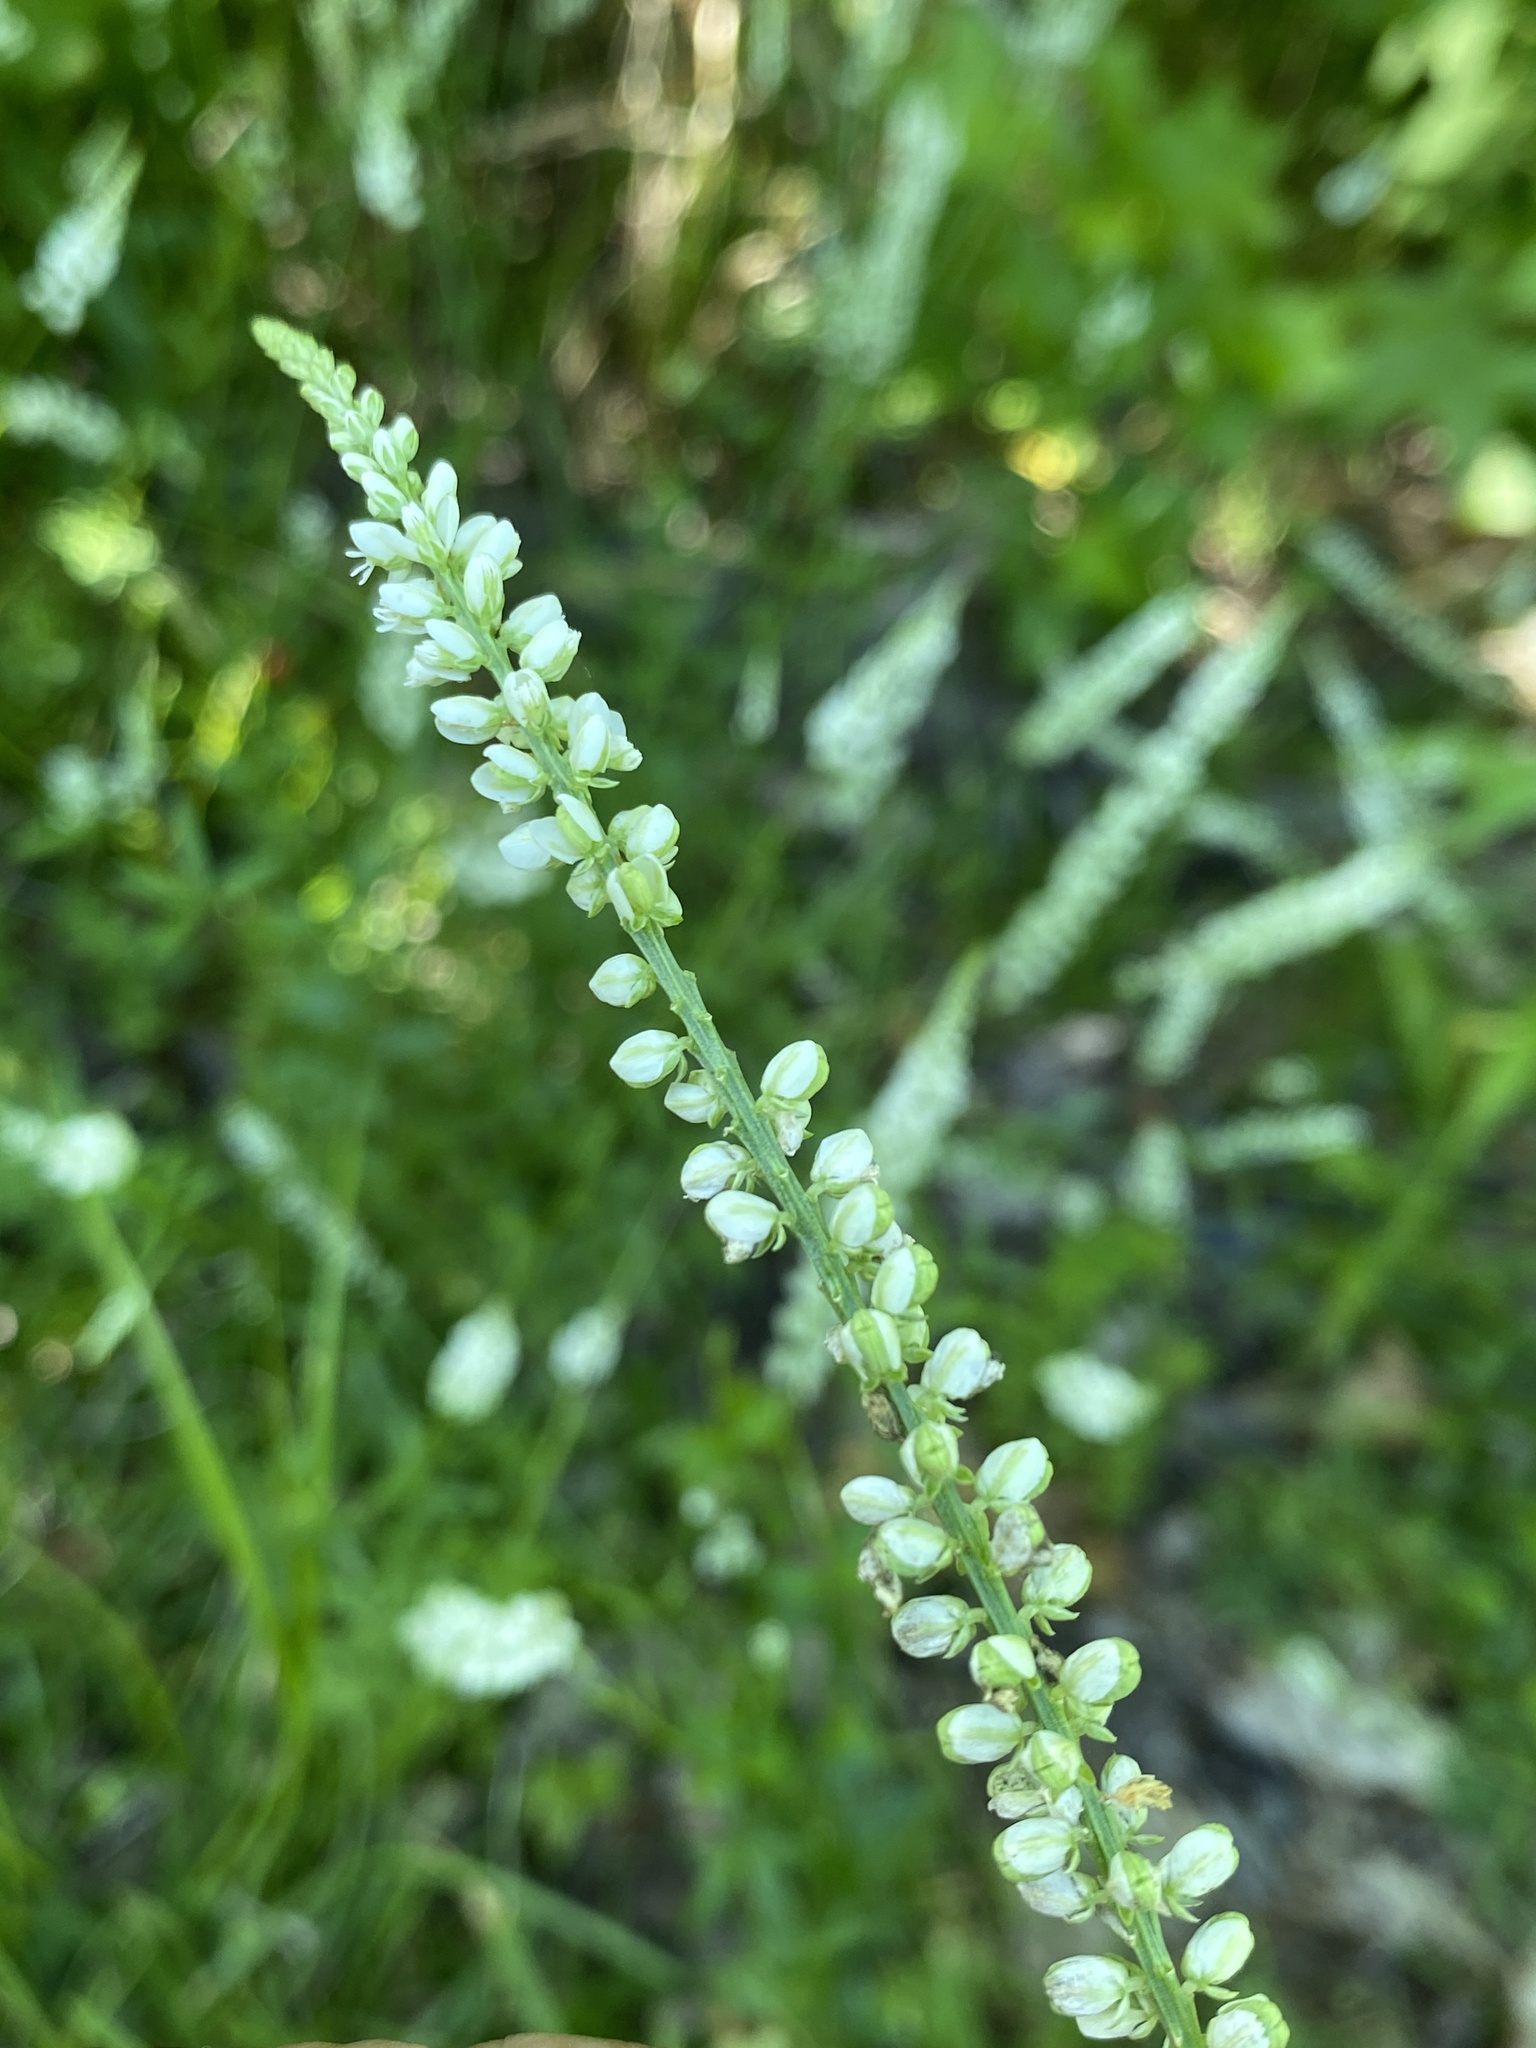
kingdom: Plantae
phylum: Tracheophyta
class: Magnoliopsida
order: Fabales
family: Polygalaceae
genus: Polygala
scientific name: Polygala boykinii
